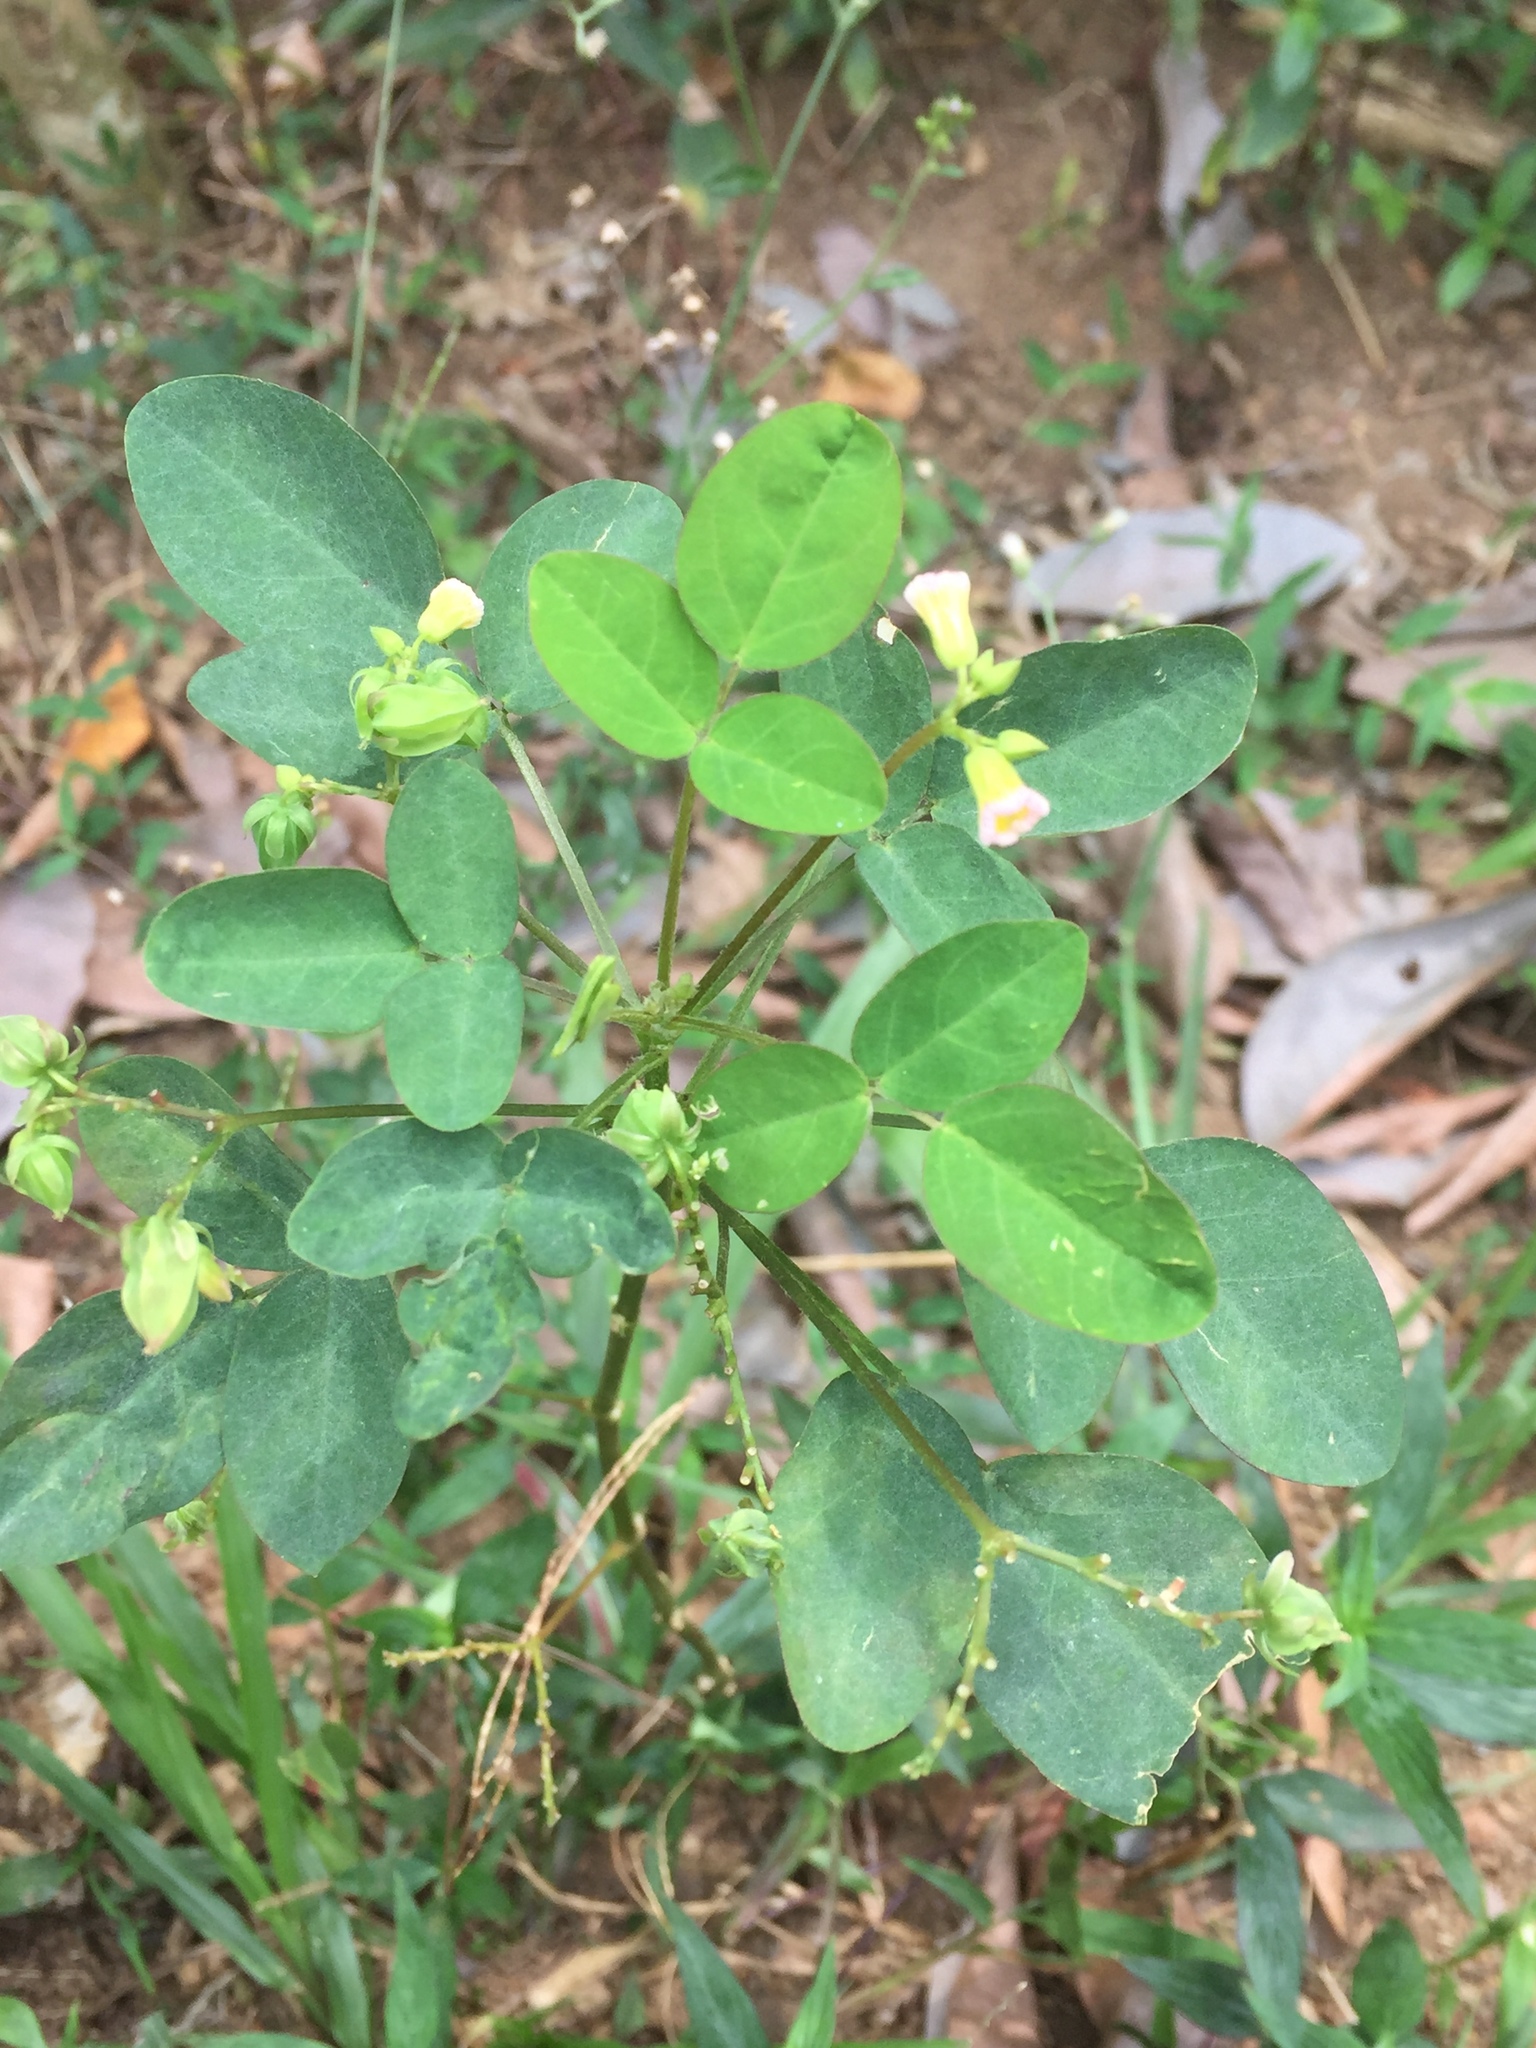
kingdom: Plantae
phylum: Tracheophyta
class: Magnoliopsida
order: Oxalidales
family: Oxalidaceae
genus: Oxalis
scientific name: Oxalis barrelieri
